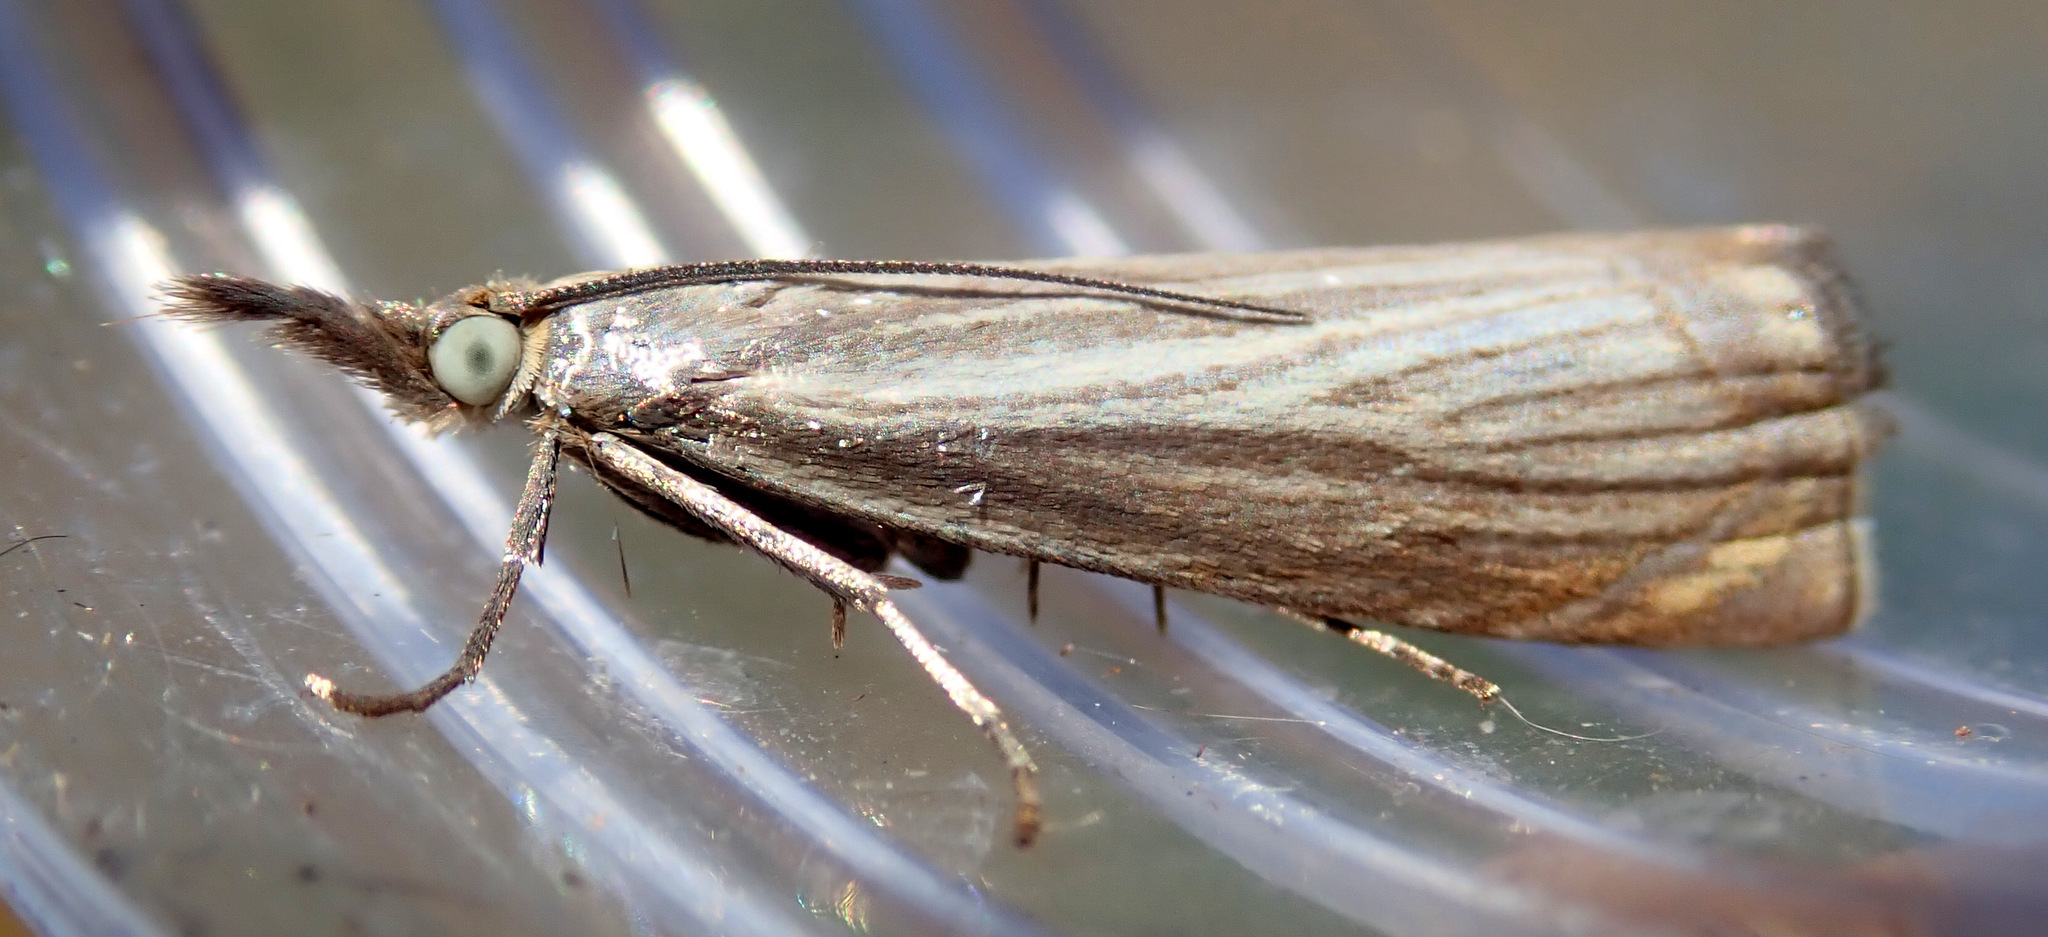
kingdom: Animalia
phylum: Arthropoda
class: Insecta
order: Lepidoptera
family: Crambidae
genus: Chrysoteuchia
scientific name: Chrysoteuchia culmella
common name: Garden grass-veneer
